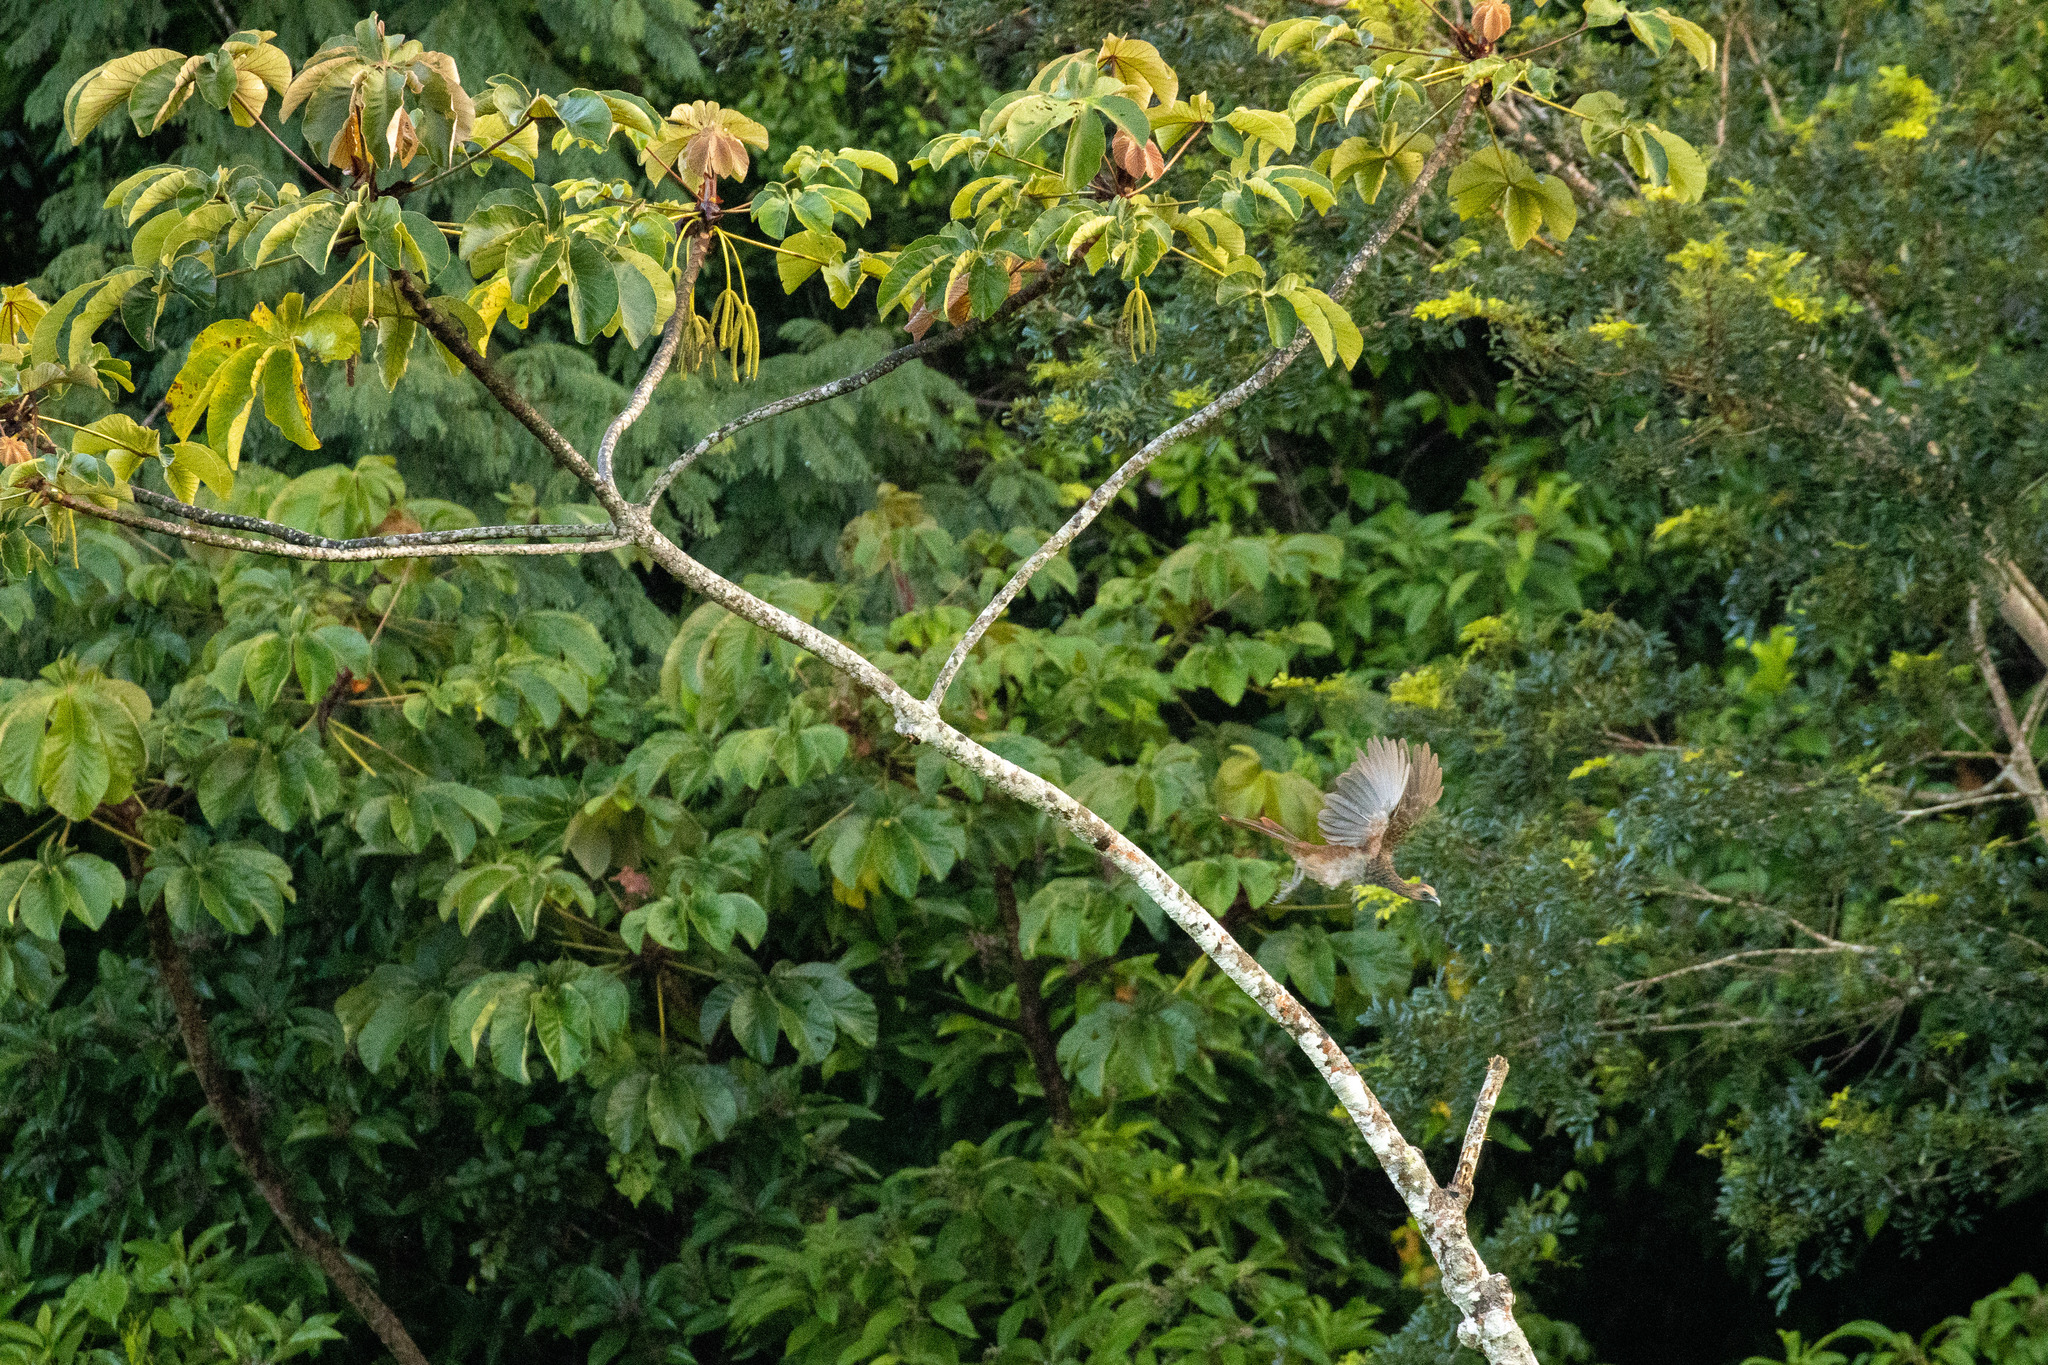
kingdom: Animalia
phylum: Chordata
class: Aves
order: Galliformes
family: Cracidae
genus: Ortalis
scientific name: Ortalis araucuan
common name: East brazilian chachalaca
